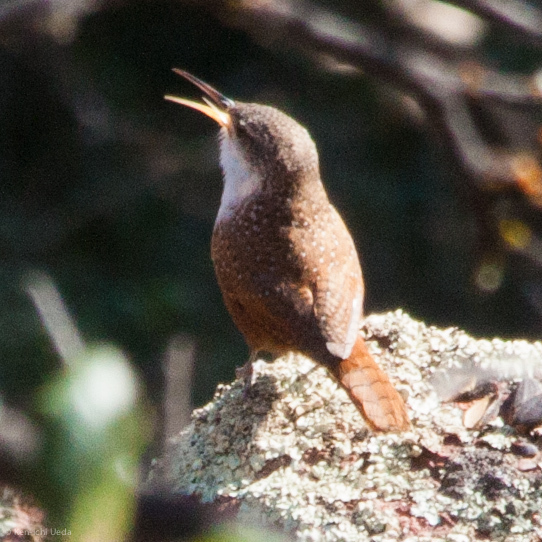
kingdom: Animalia
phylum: Chordata
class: Aves
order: Passeriformes
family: Troglodytidae
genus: Catherpes
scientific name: Catherpes mexicanus
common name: Canyon wren
